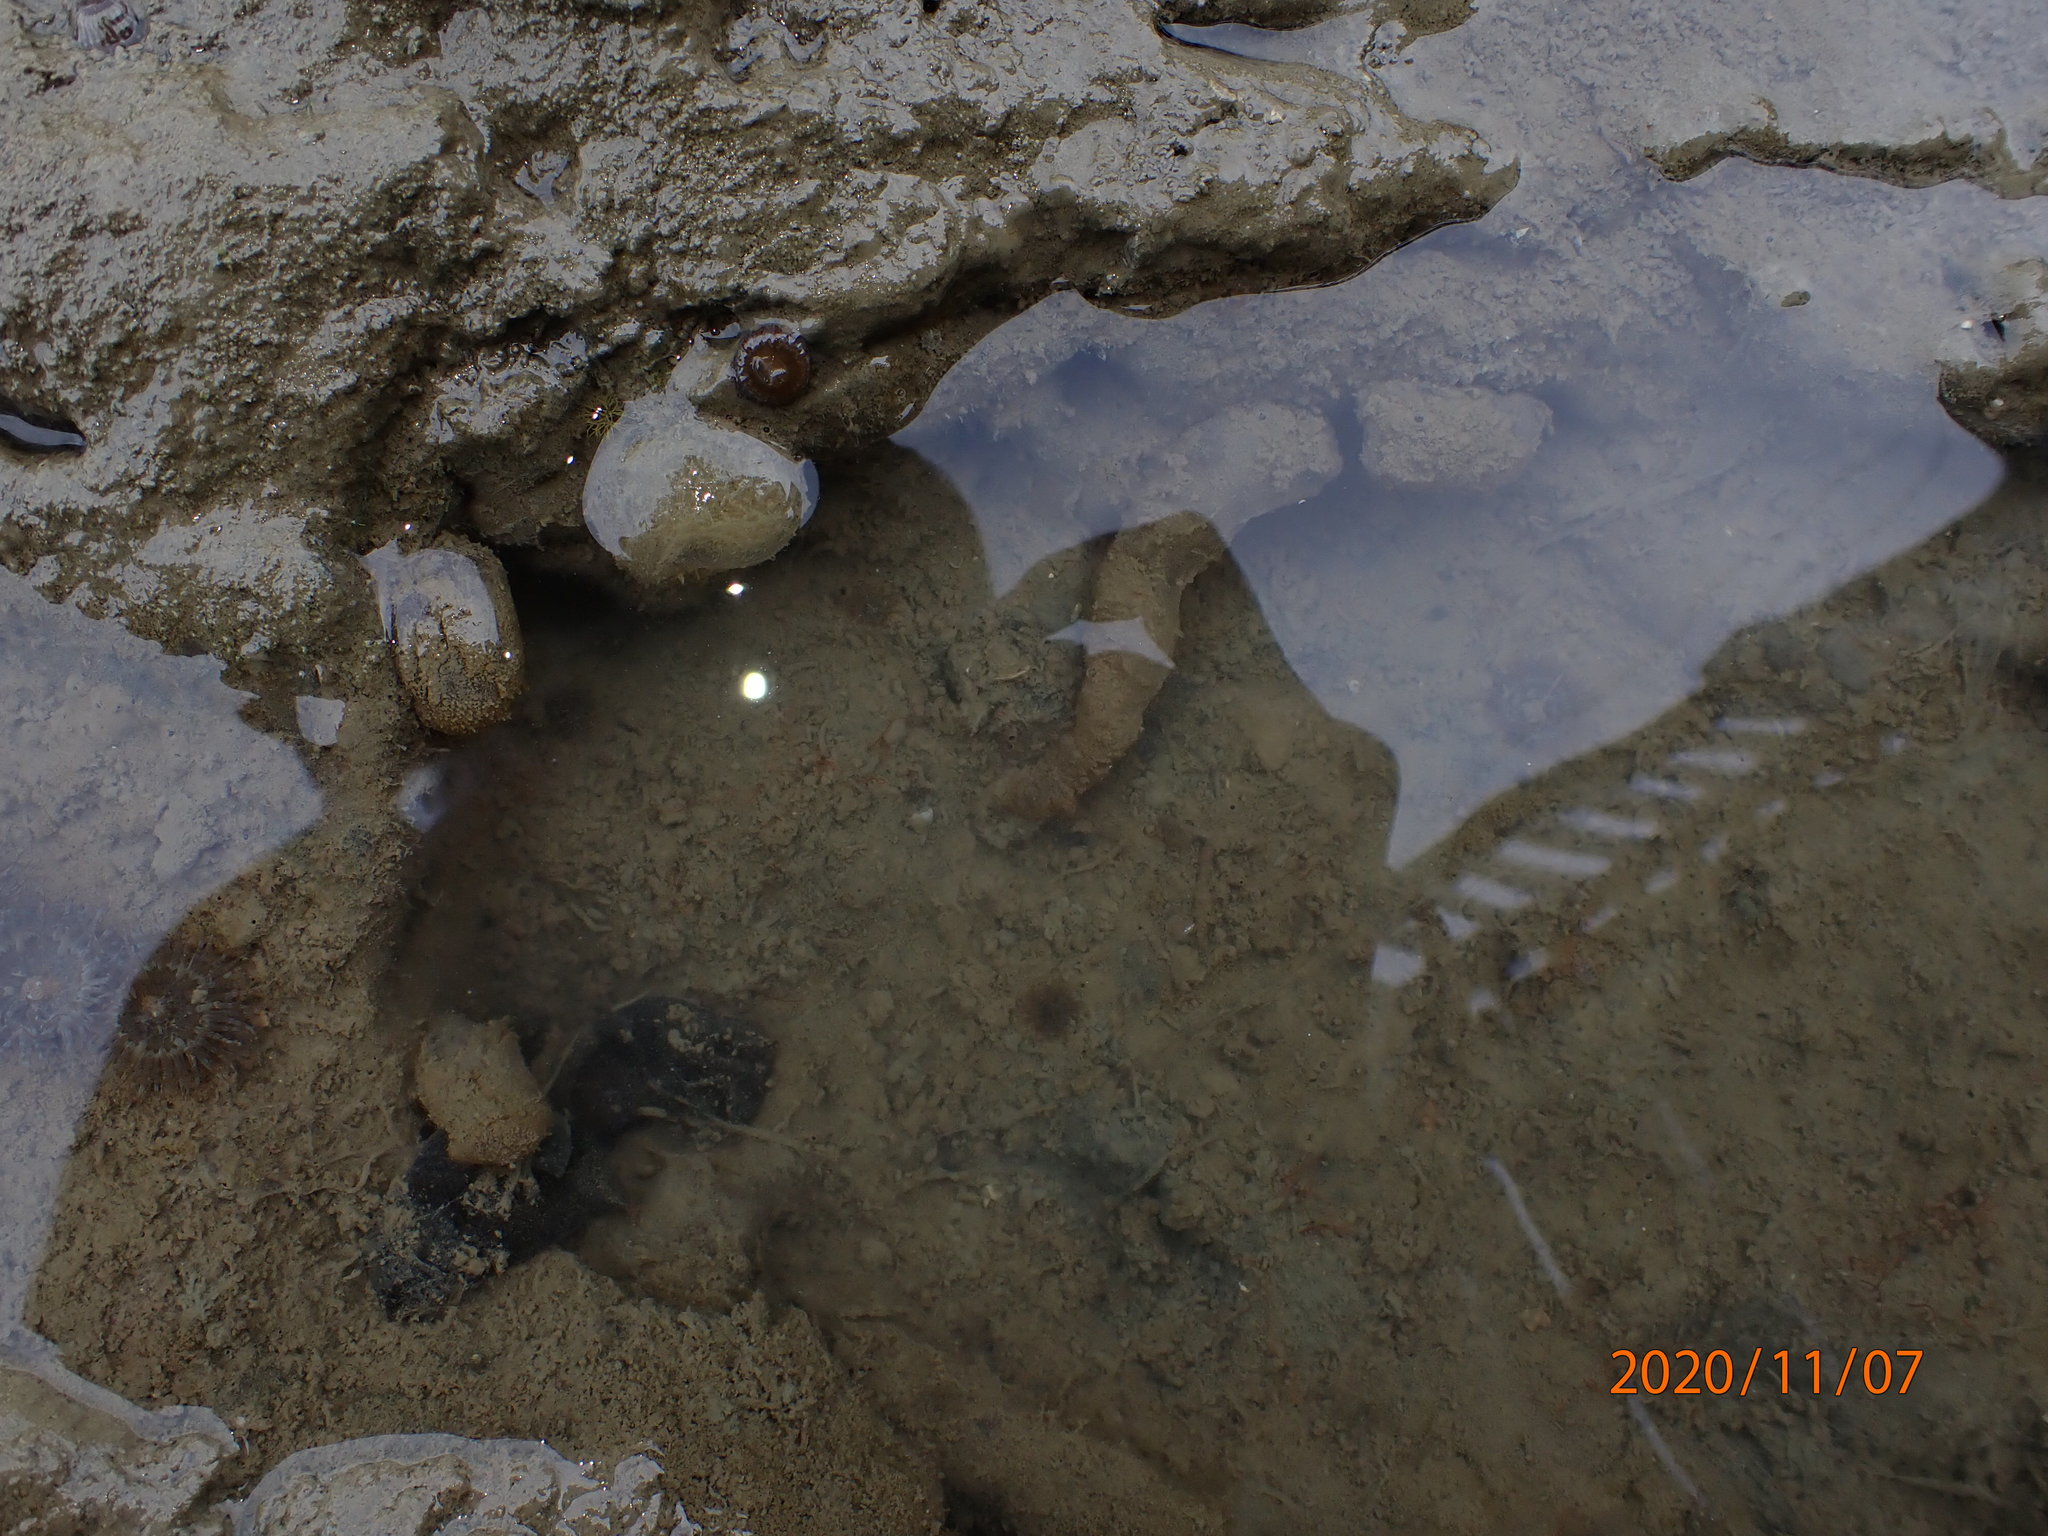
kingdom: Animalia
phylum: Mollusca
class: Gastropoda
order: Cephalaspidea
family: Haminoeidae
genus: Papawera
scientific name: Papawera zelandiae
